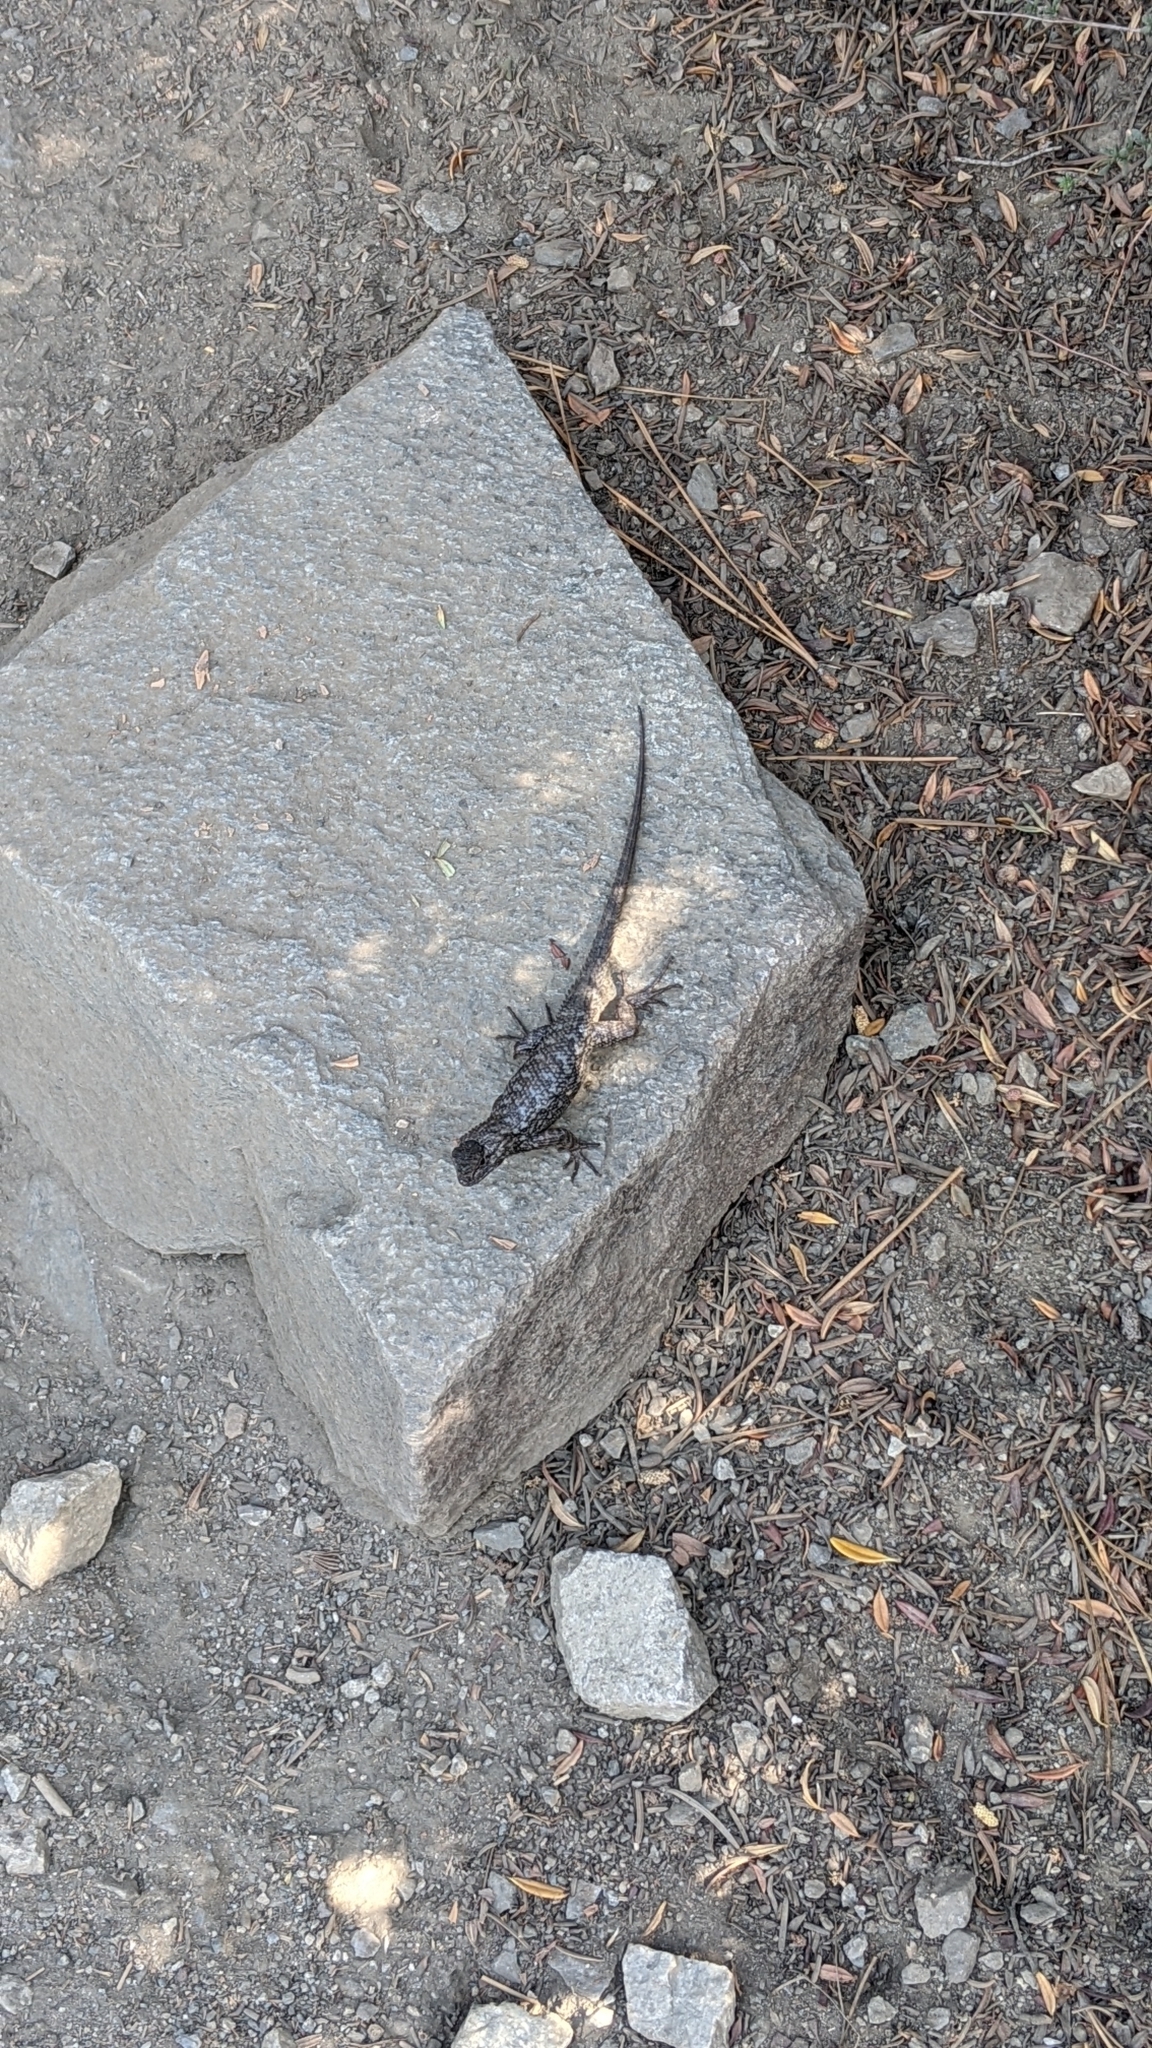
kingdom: Animalia
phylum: Chordata
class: Squamata
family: Phrynosomatidae
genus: Sceloporus
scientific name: Sceloporus occidentalis
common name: Western fence lizard
